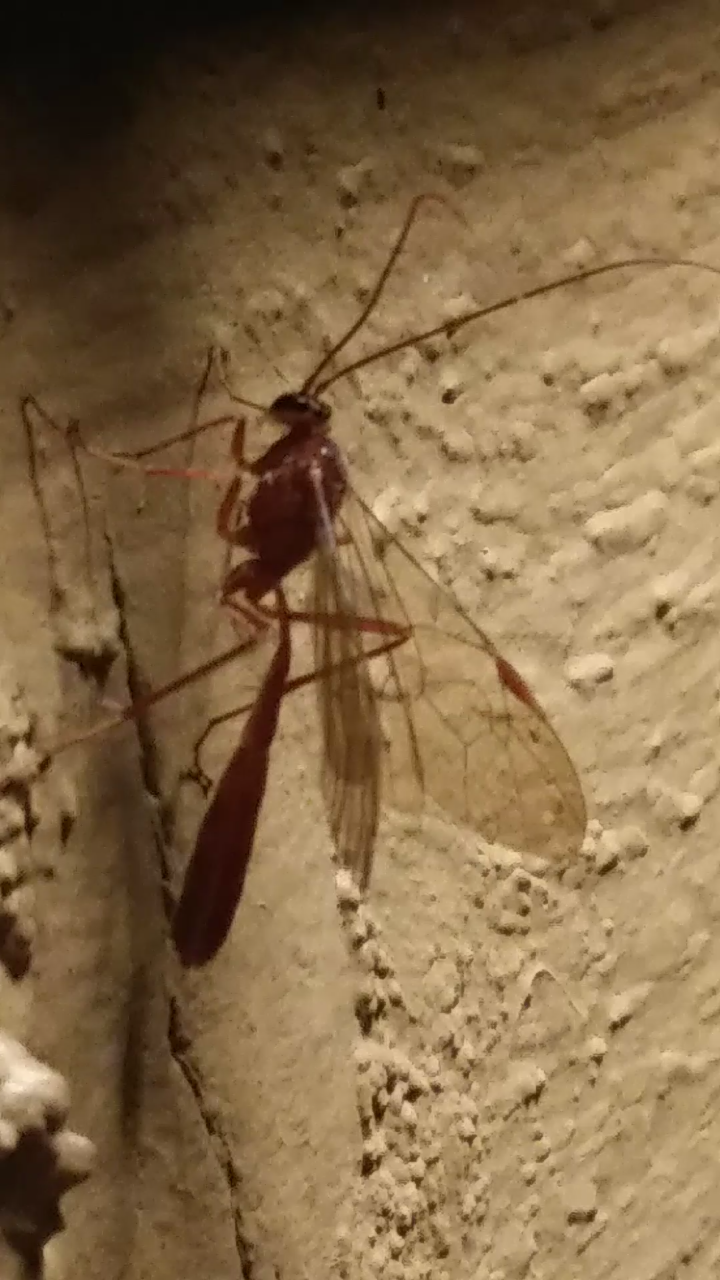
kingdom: Animalia
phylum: Arthropoda
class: Insecta
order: Hymenoptera
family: Ichneumonidae
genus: Ophion
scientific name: Ophion
